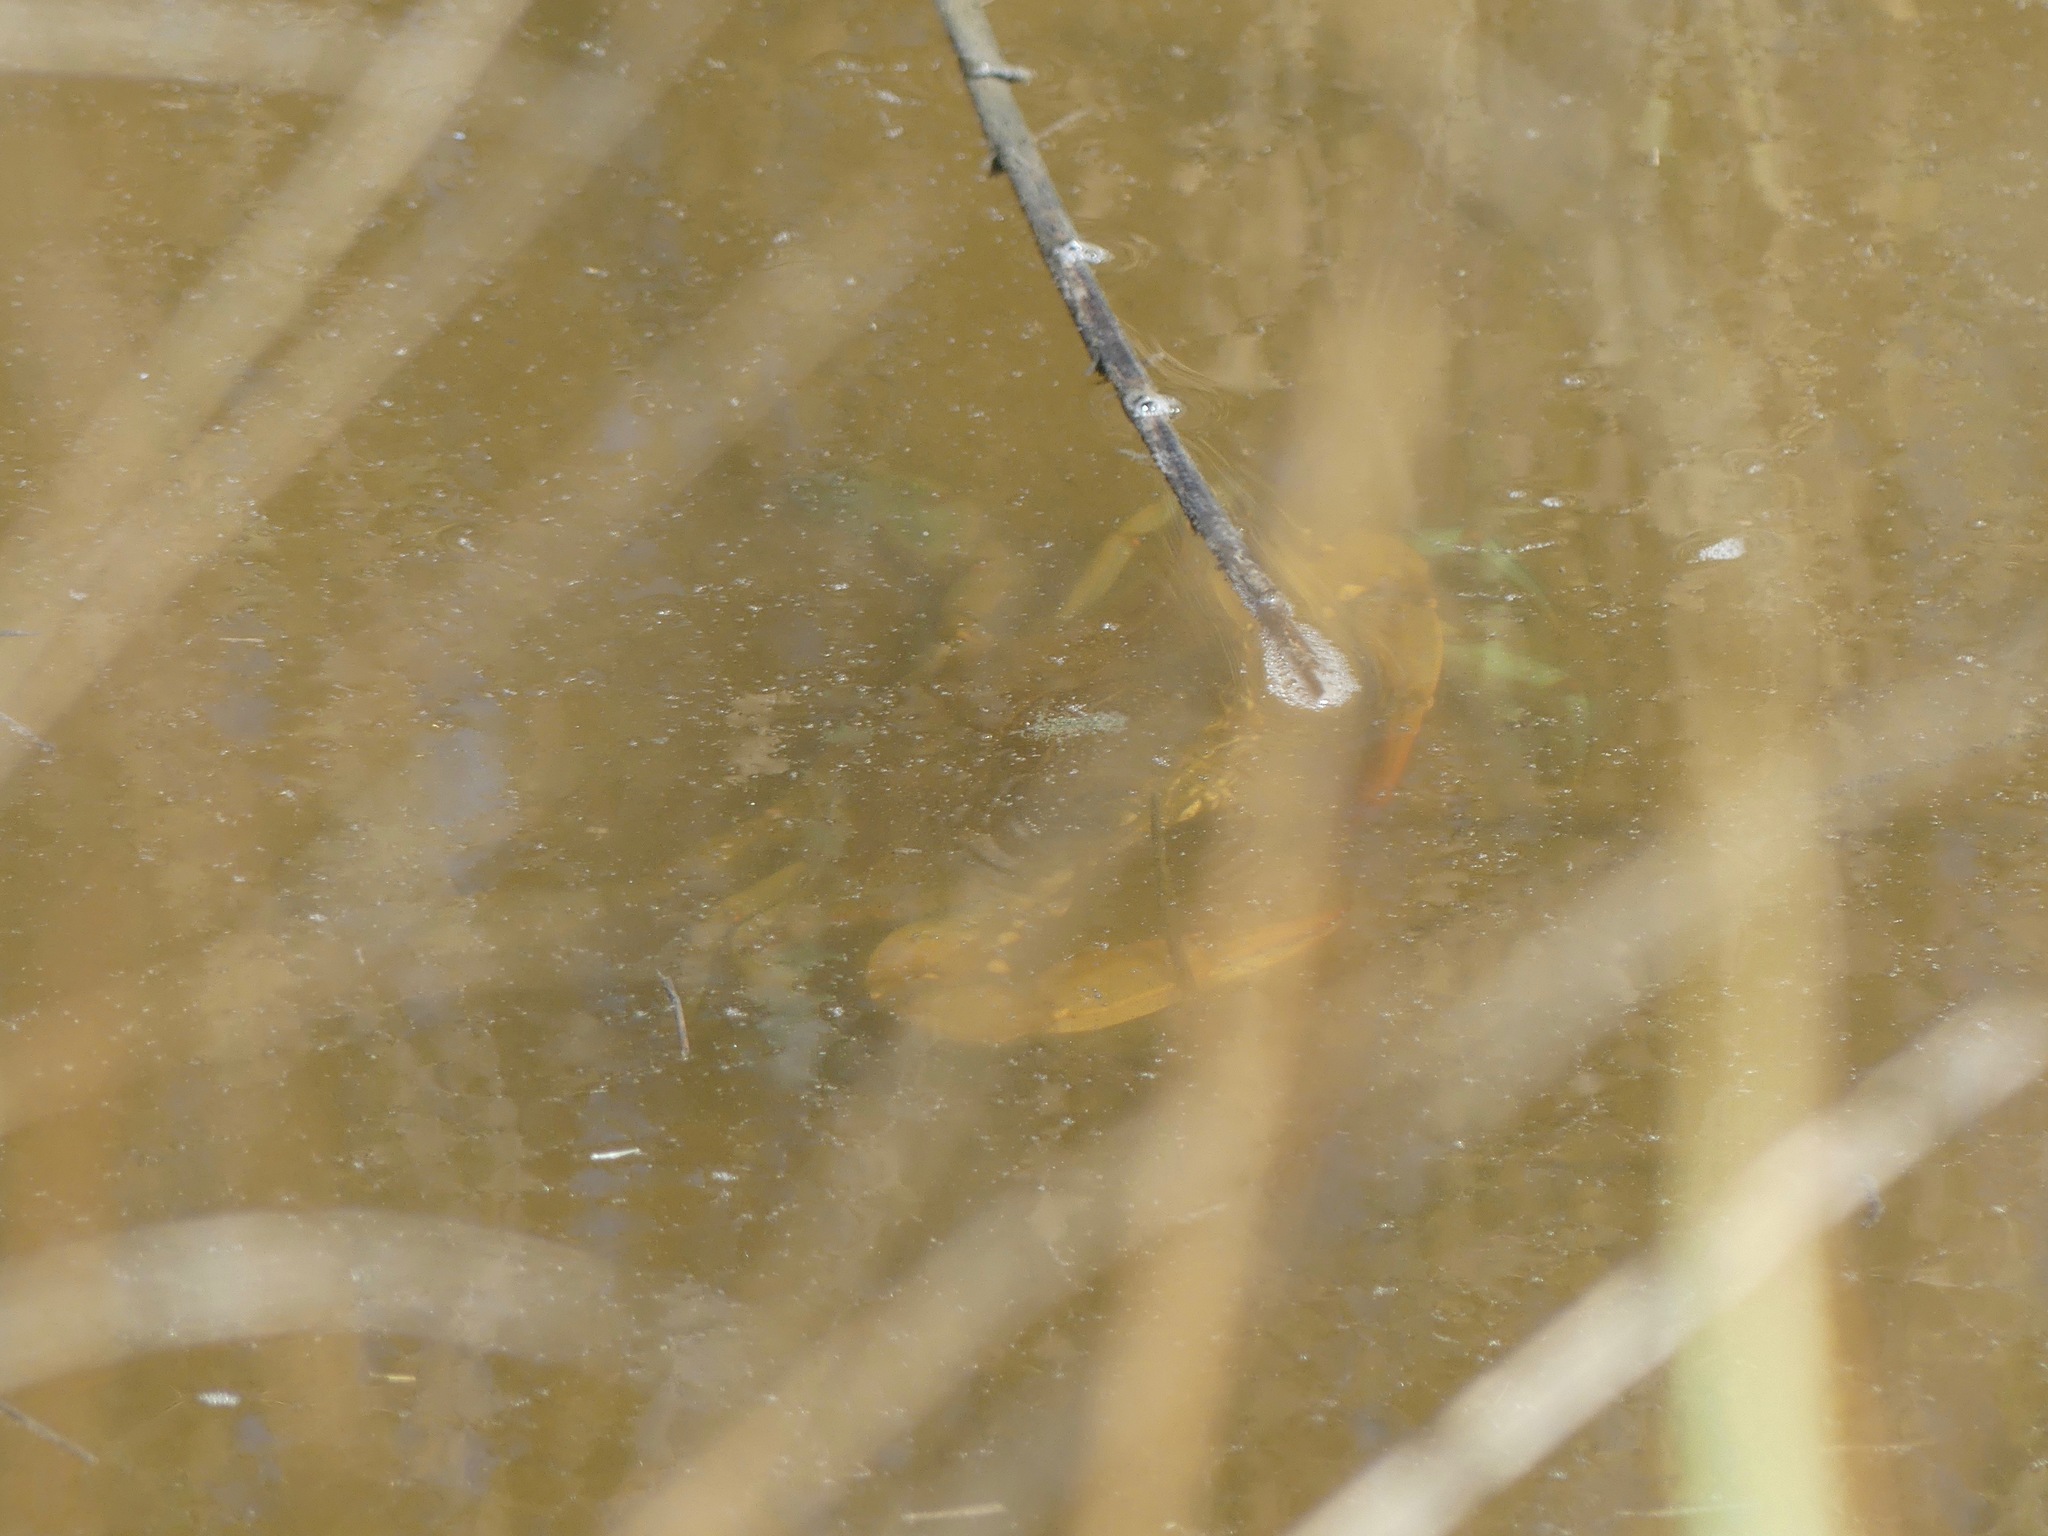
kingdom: Animalia
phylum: Arthropoda
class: Malacostraca
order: Decapoda
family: Portunidae
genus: Callinectes
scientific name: Callinectes sapidus
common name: Blue crab
